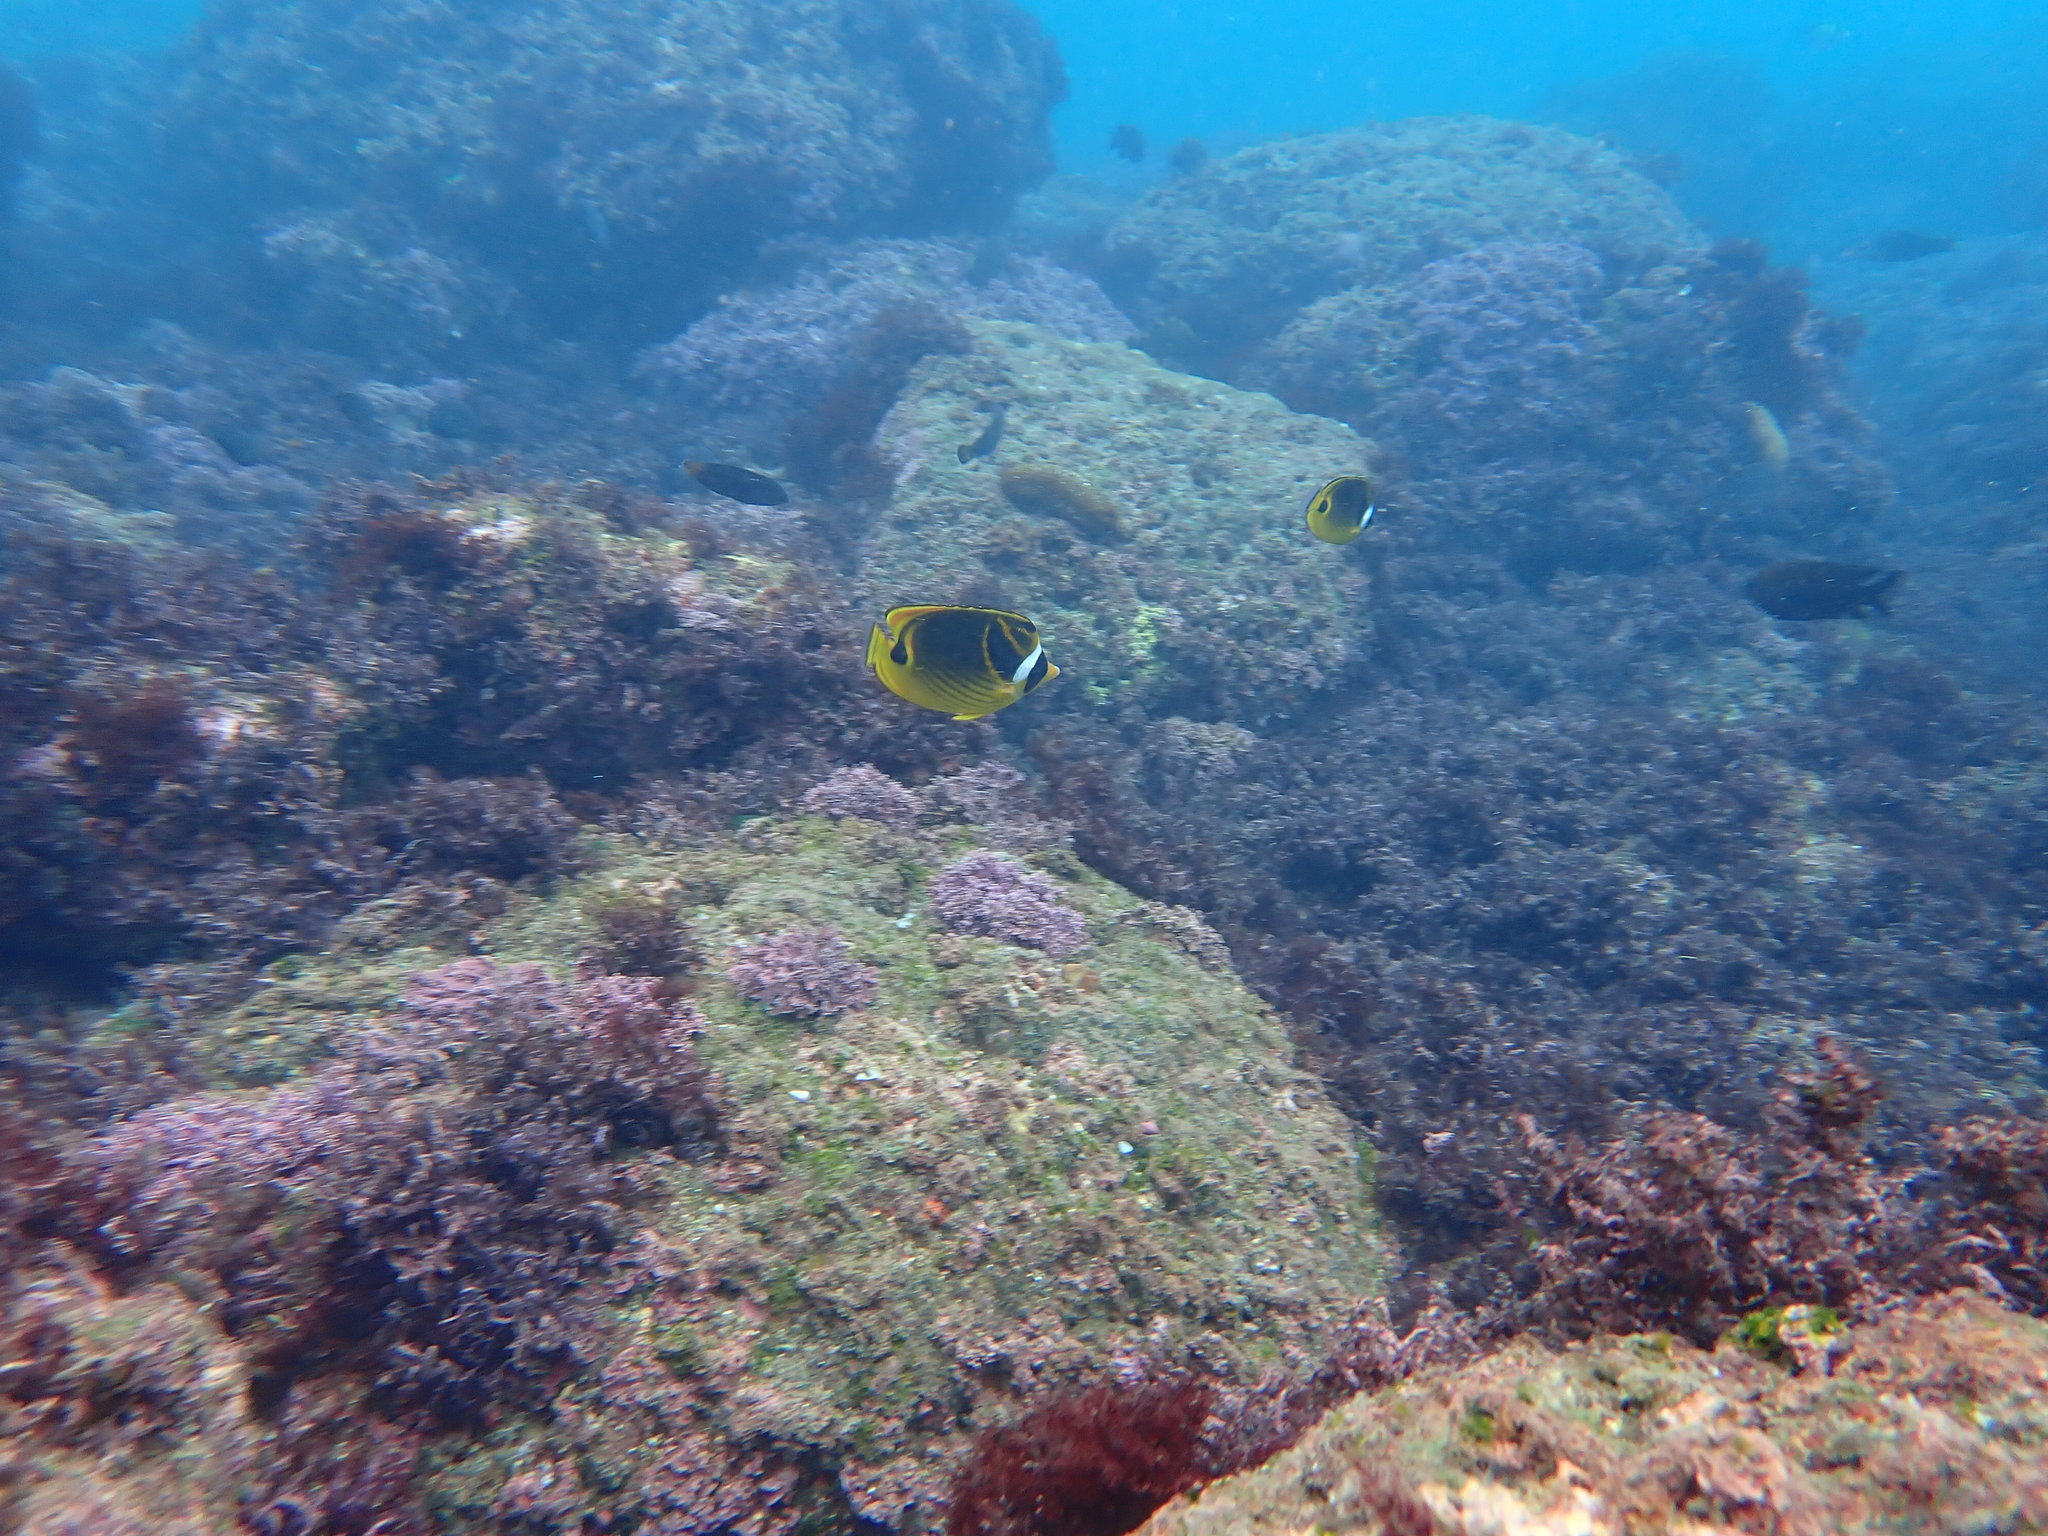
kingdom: Animalia
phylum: Chordata
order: Perciformes
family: Chaetodontidae
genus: Chaetodon
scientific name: Chaetodon lunula
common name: Raccoon butterflyfish
